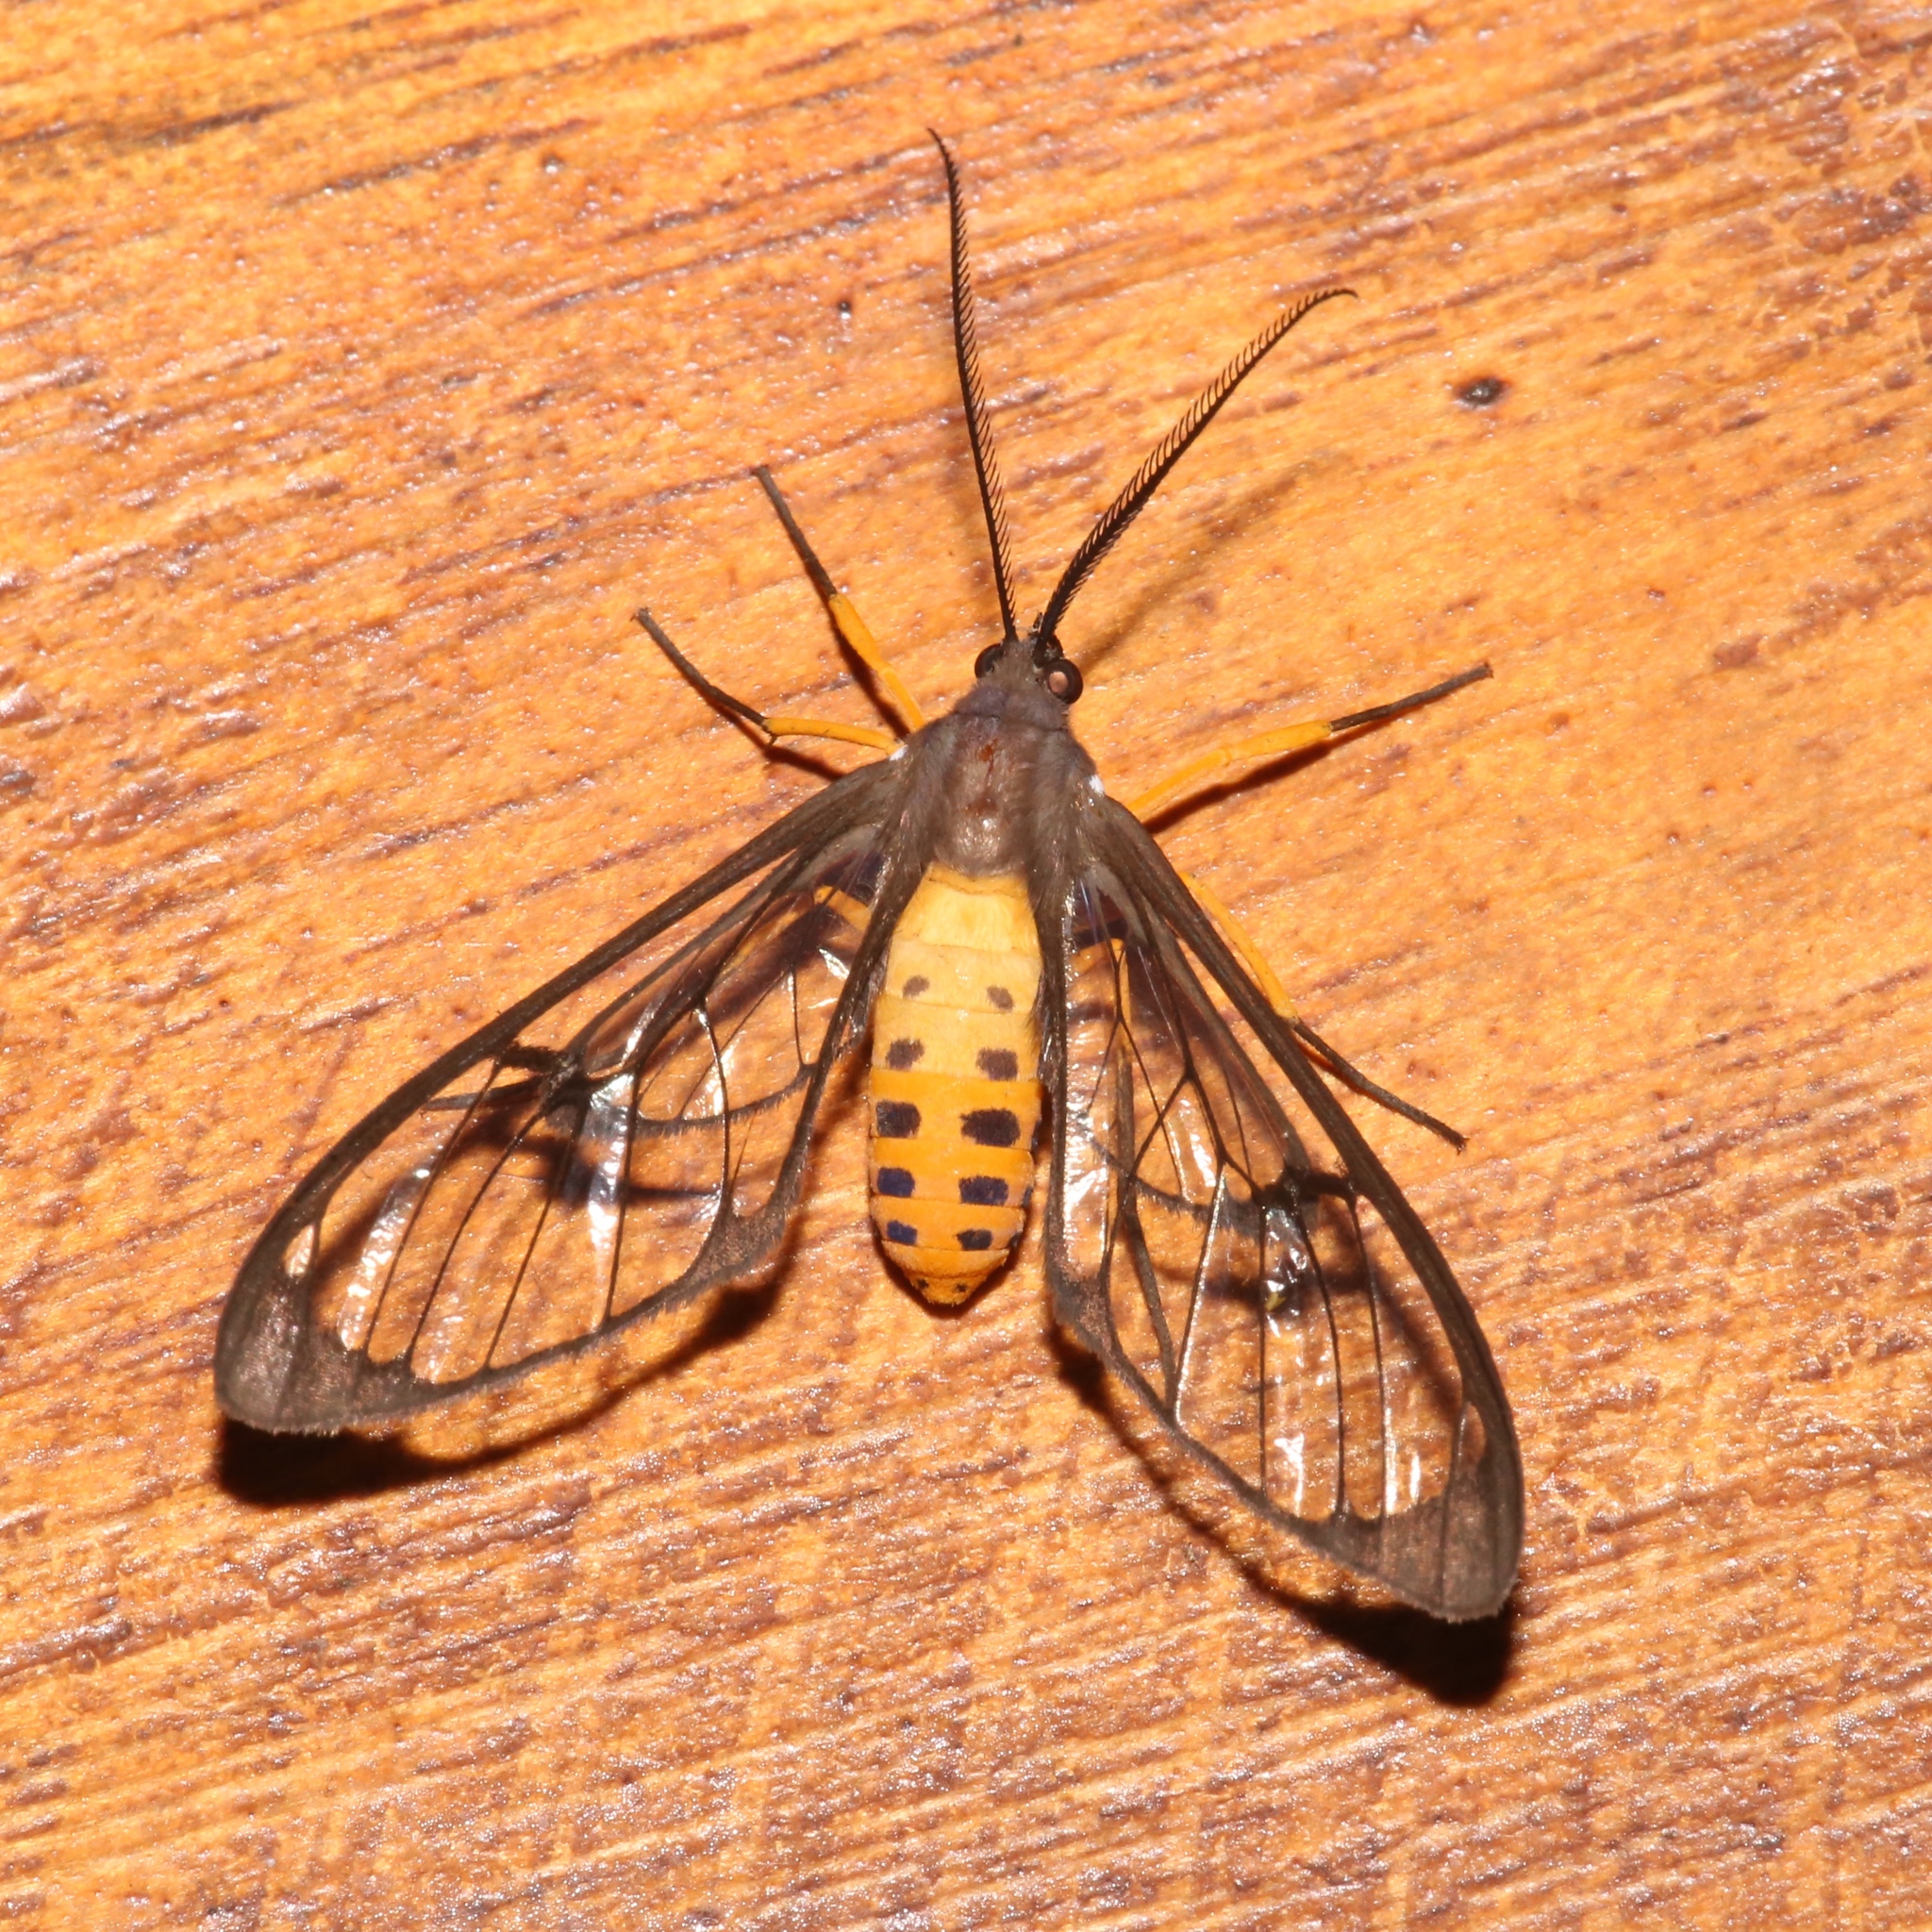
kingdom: Animalia
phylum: Arthropoda
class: Insecta
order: Lepidoptera
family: Erebidae
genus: Mesothen
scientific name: Mesothen montana
